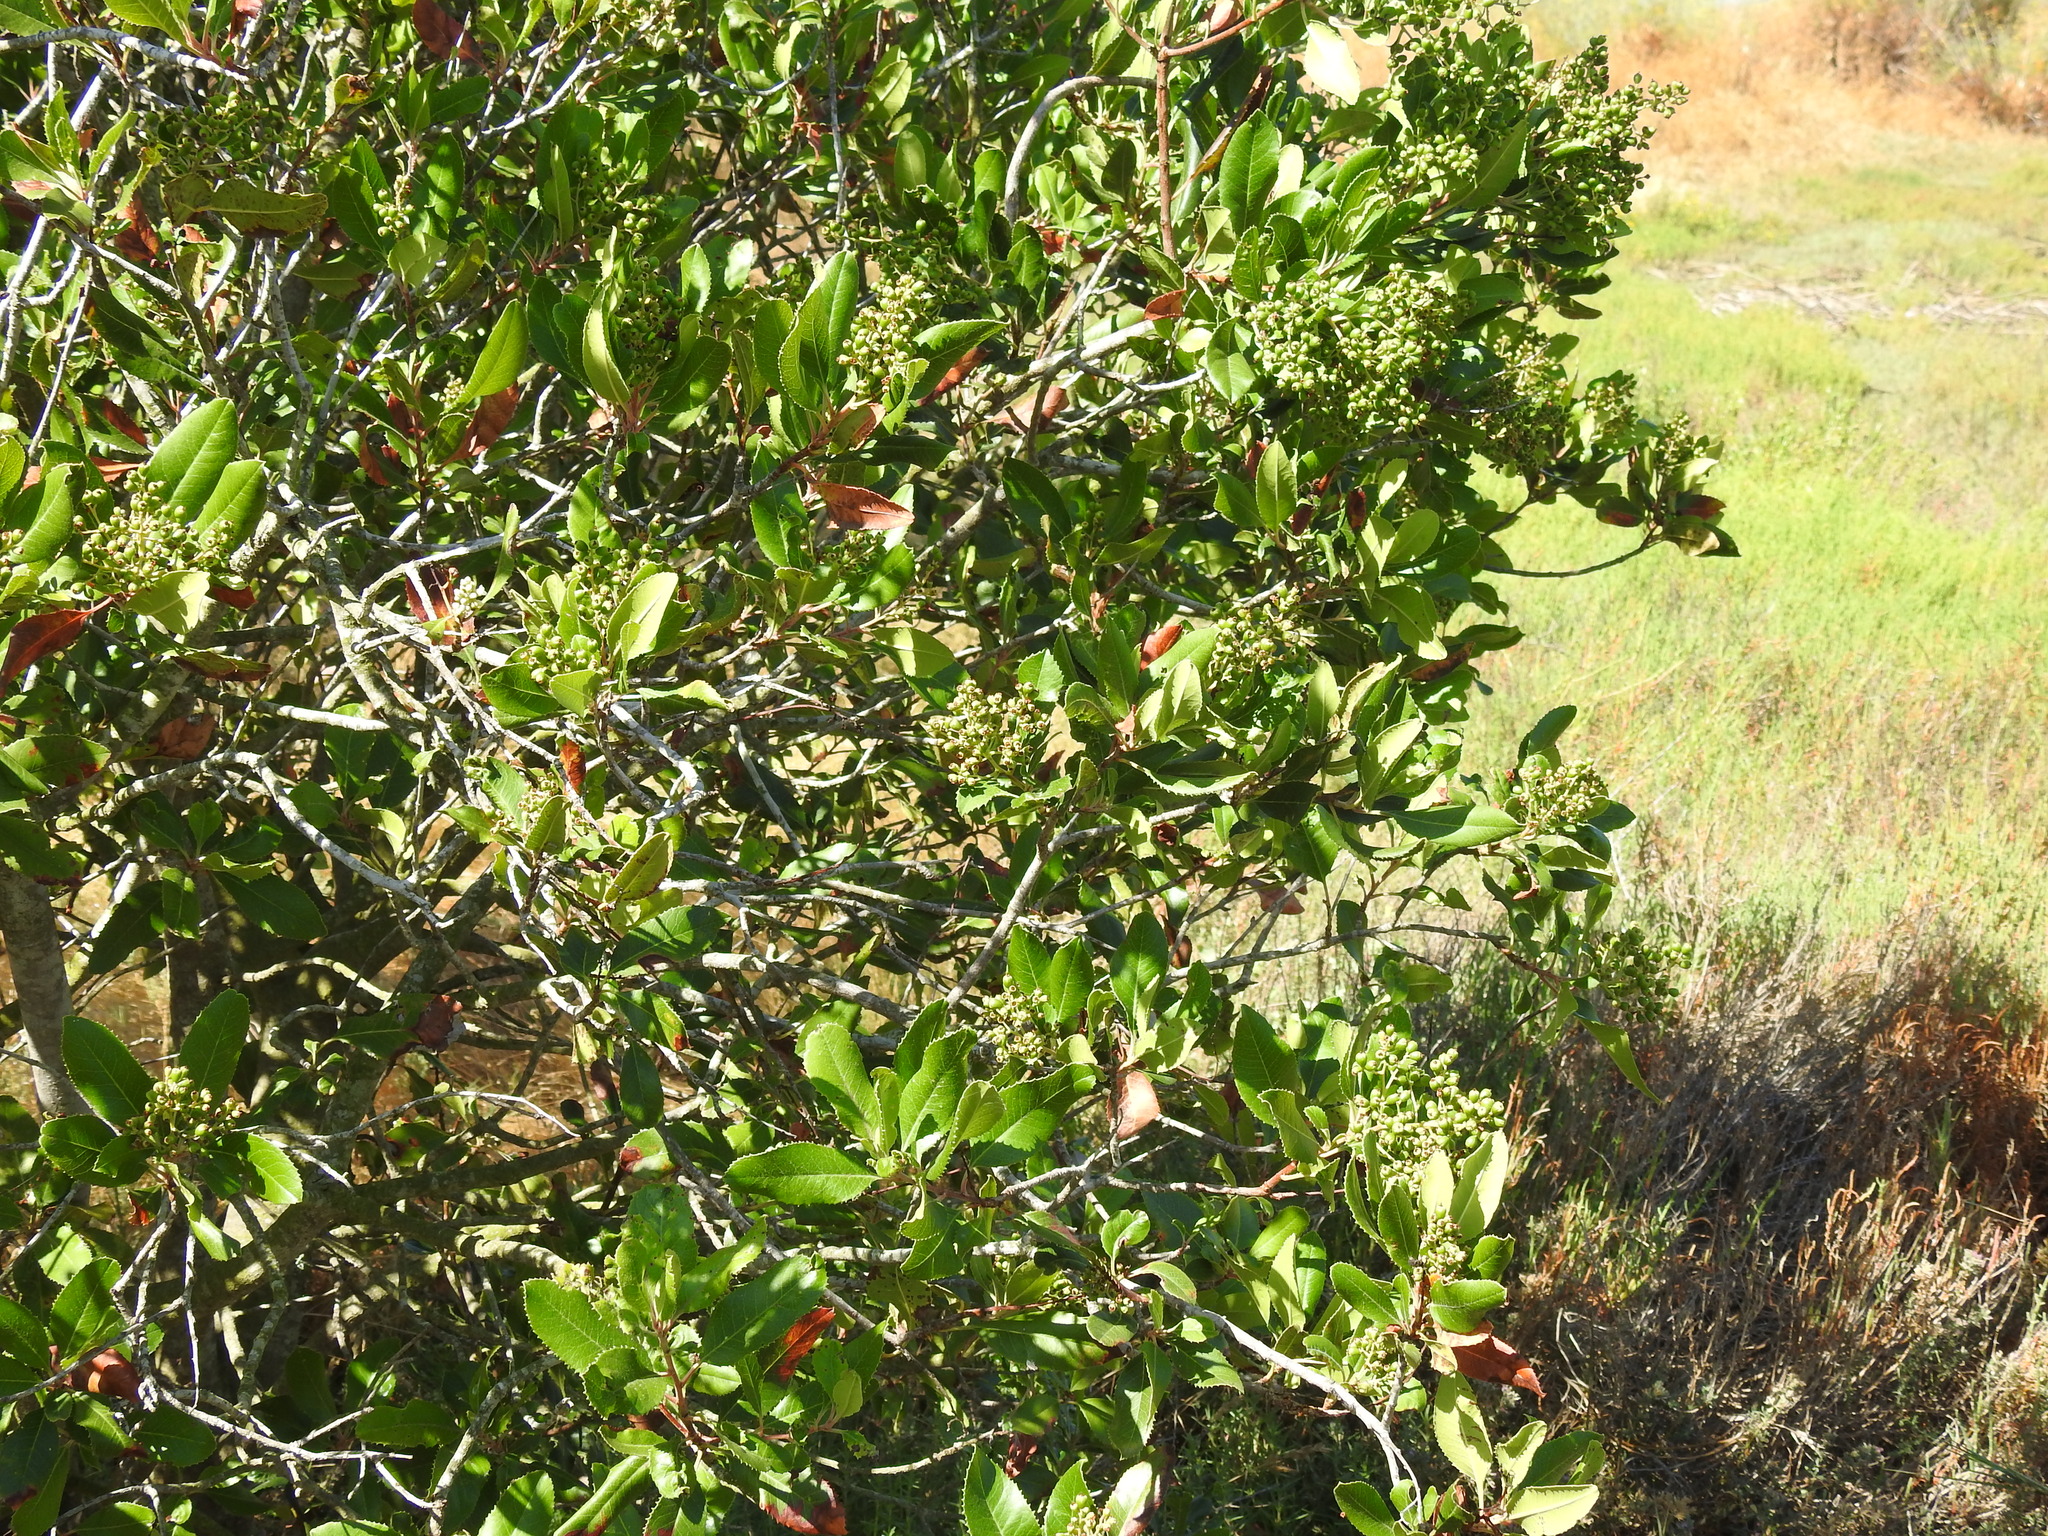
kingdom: Plantae
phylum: Tracheophyta
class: Magnoliopsida
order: Rosales
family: Rosaceae
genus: Heteromeles
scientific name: Heteromeles arbutifolia
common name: California-holly
